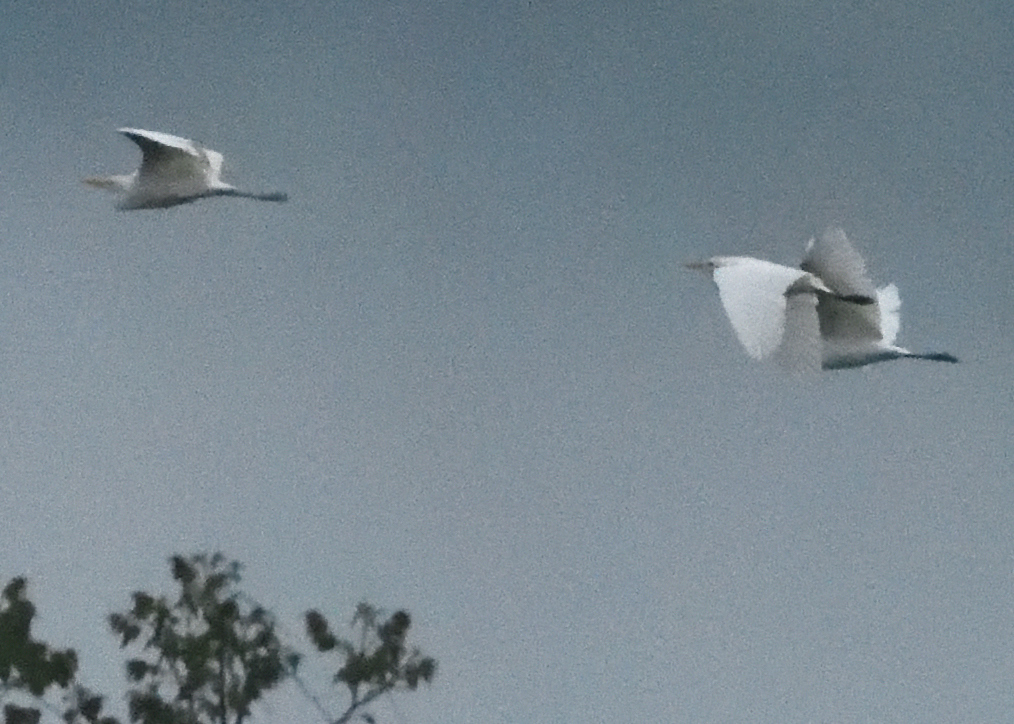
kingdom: Animalia
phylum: Chordata
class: Aves
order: Pelecaniformes
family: Ardeidae
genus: Bubulcus
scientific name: Bubulcus ibis
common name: Cattle egret
